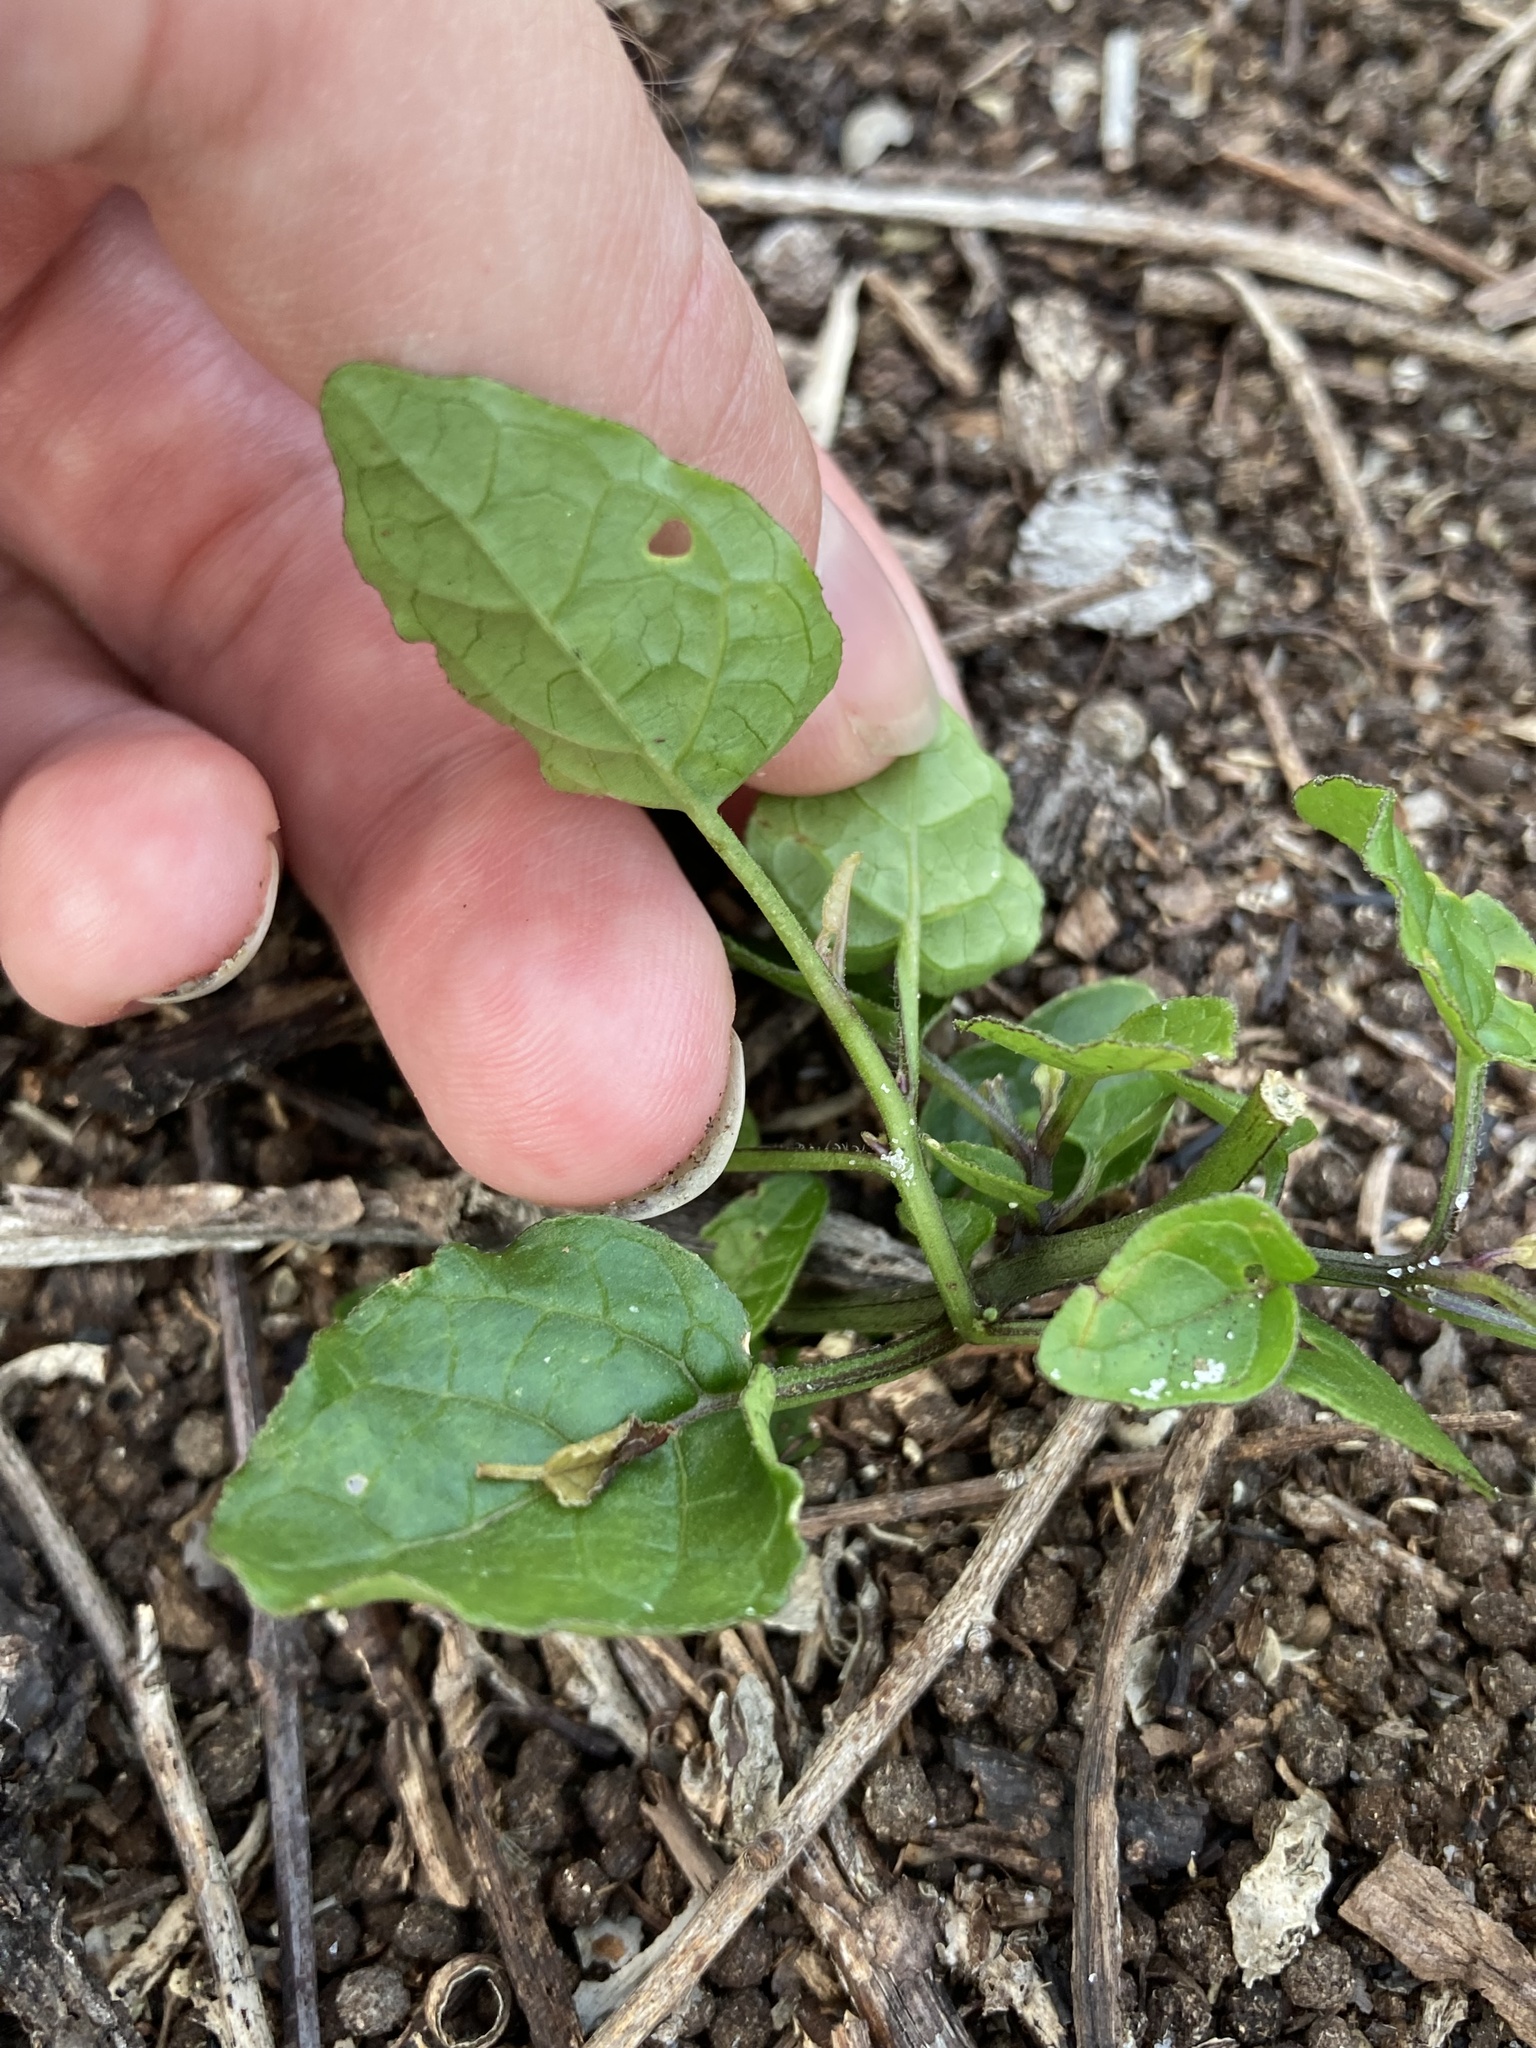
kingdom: Plantae
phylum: Tracheophyta
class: Magnoliopsida
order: Solanales
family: Solanaceae
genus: Physalis
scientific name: Physalis arenicola
